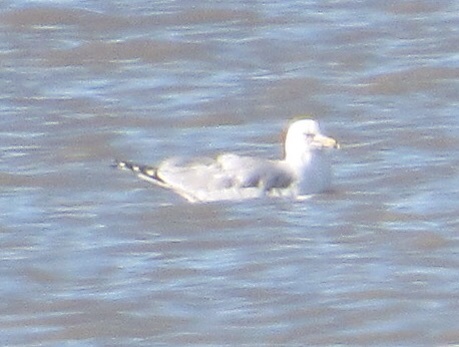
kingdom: Animalia
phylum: Chordata
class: Aves
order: Charadriiformes
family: Laridae
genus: Larus
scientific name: Larus delawarensis
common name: Ring-billed gull
